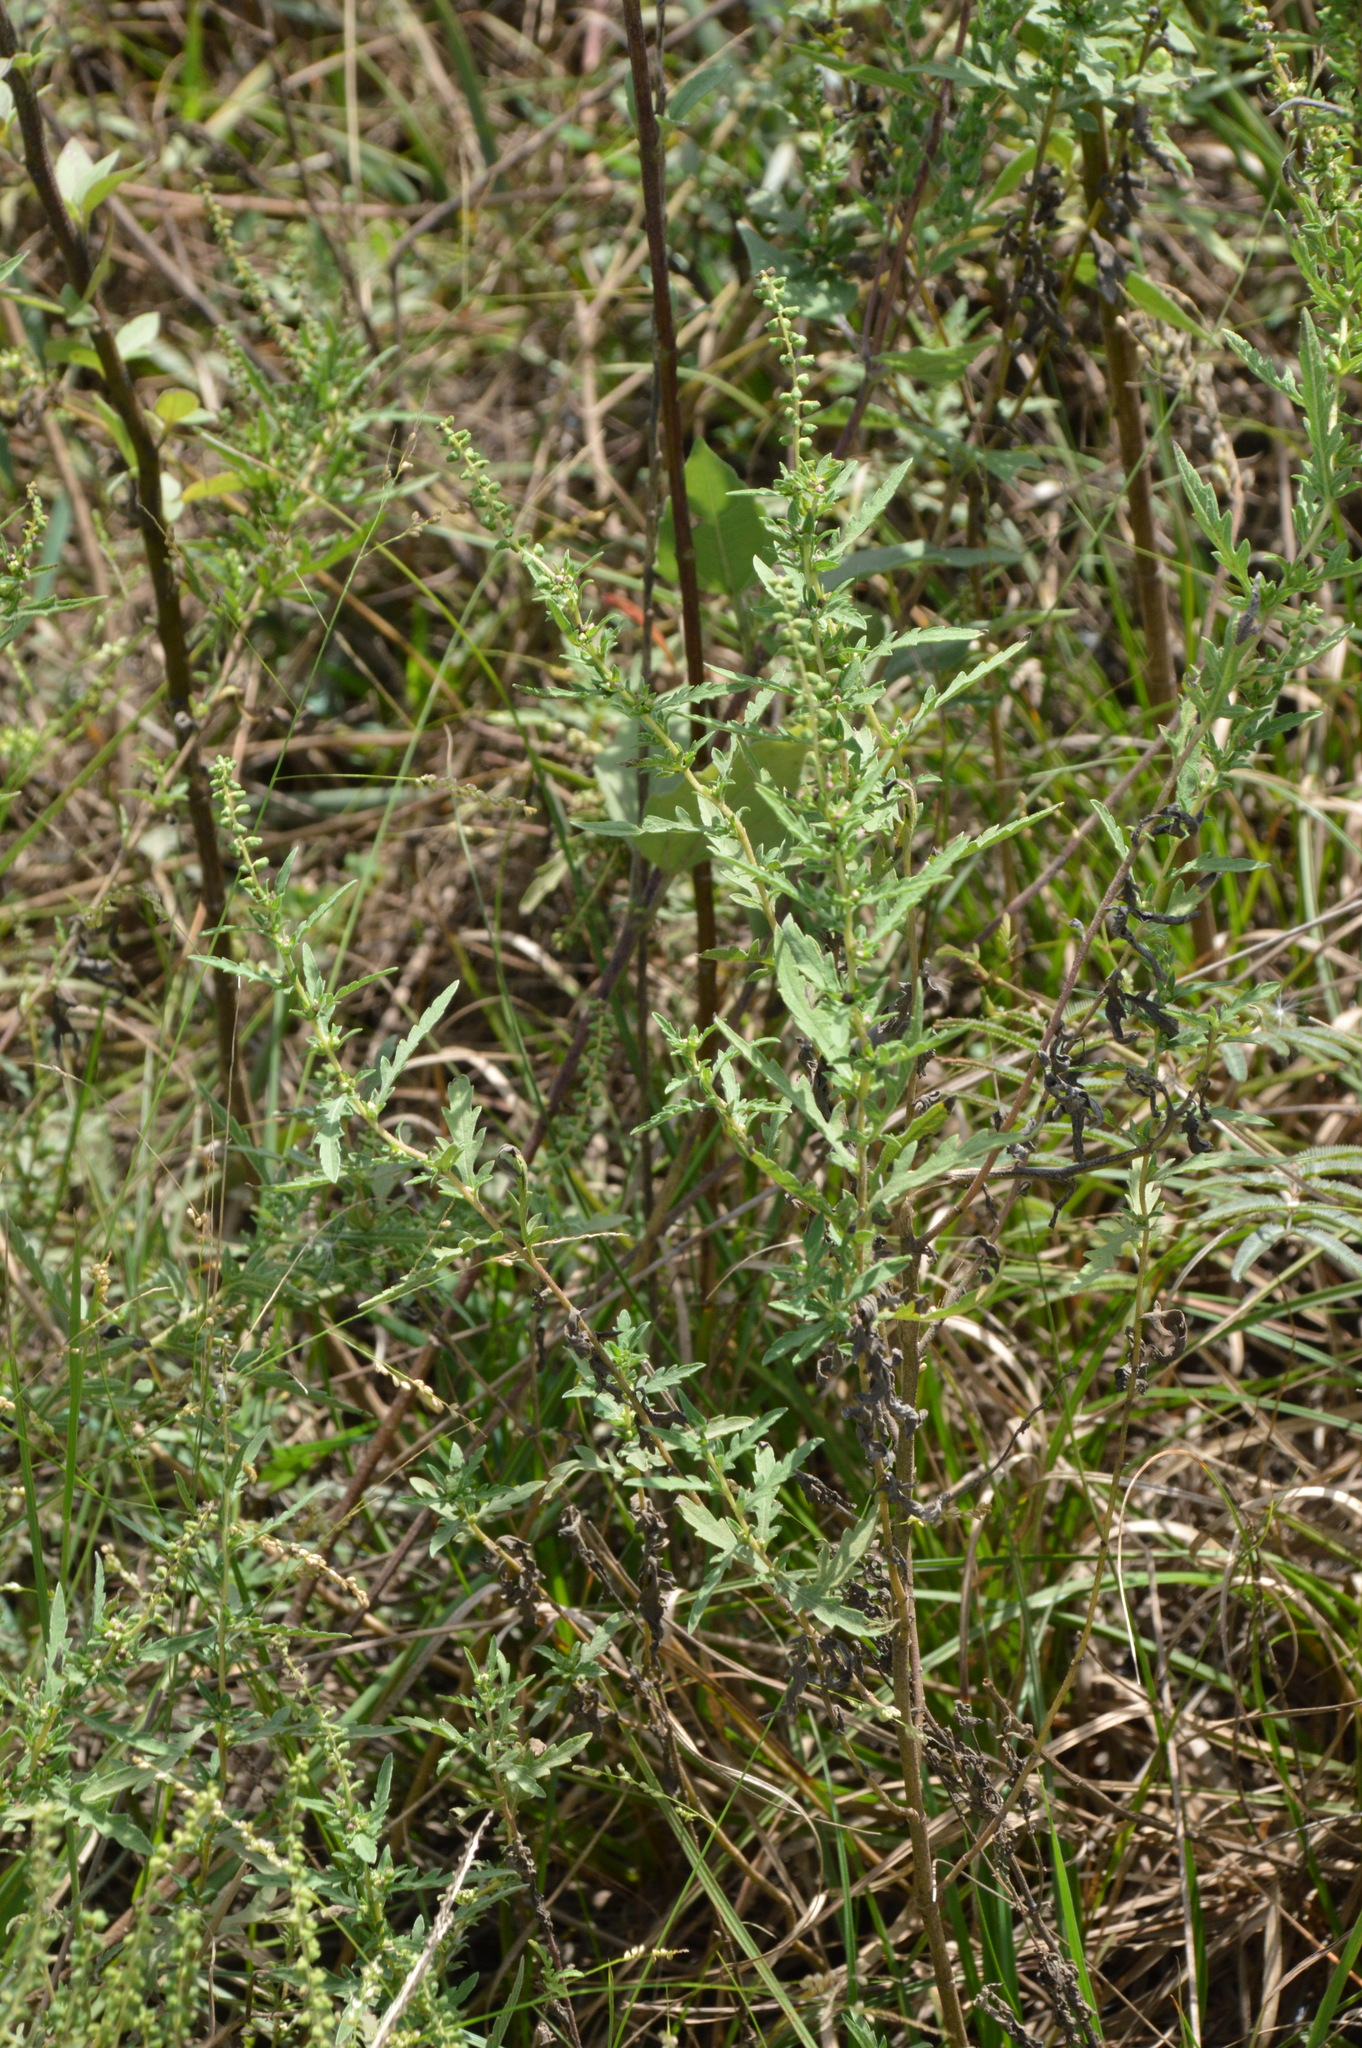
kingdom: Plantae
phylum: Tracheophyta
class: Magnoliopsida
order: Asterales
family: Asteraceae
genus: Ambrosia
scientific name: Ambrosia psilostachya
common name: Perennial ragweed
